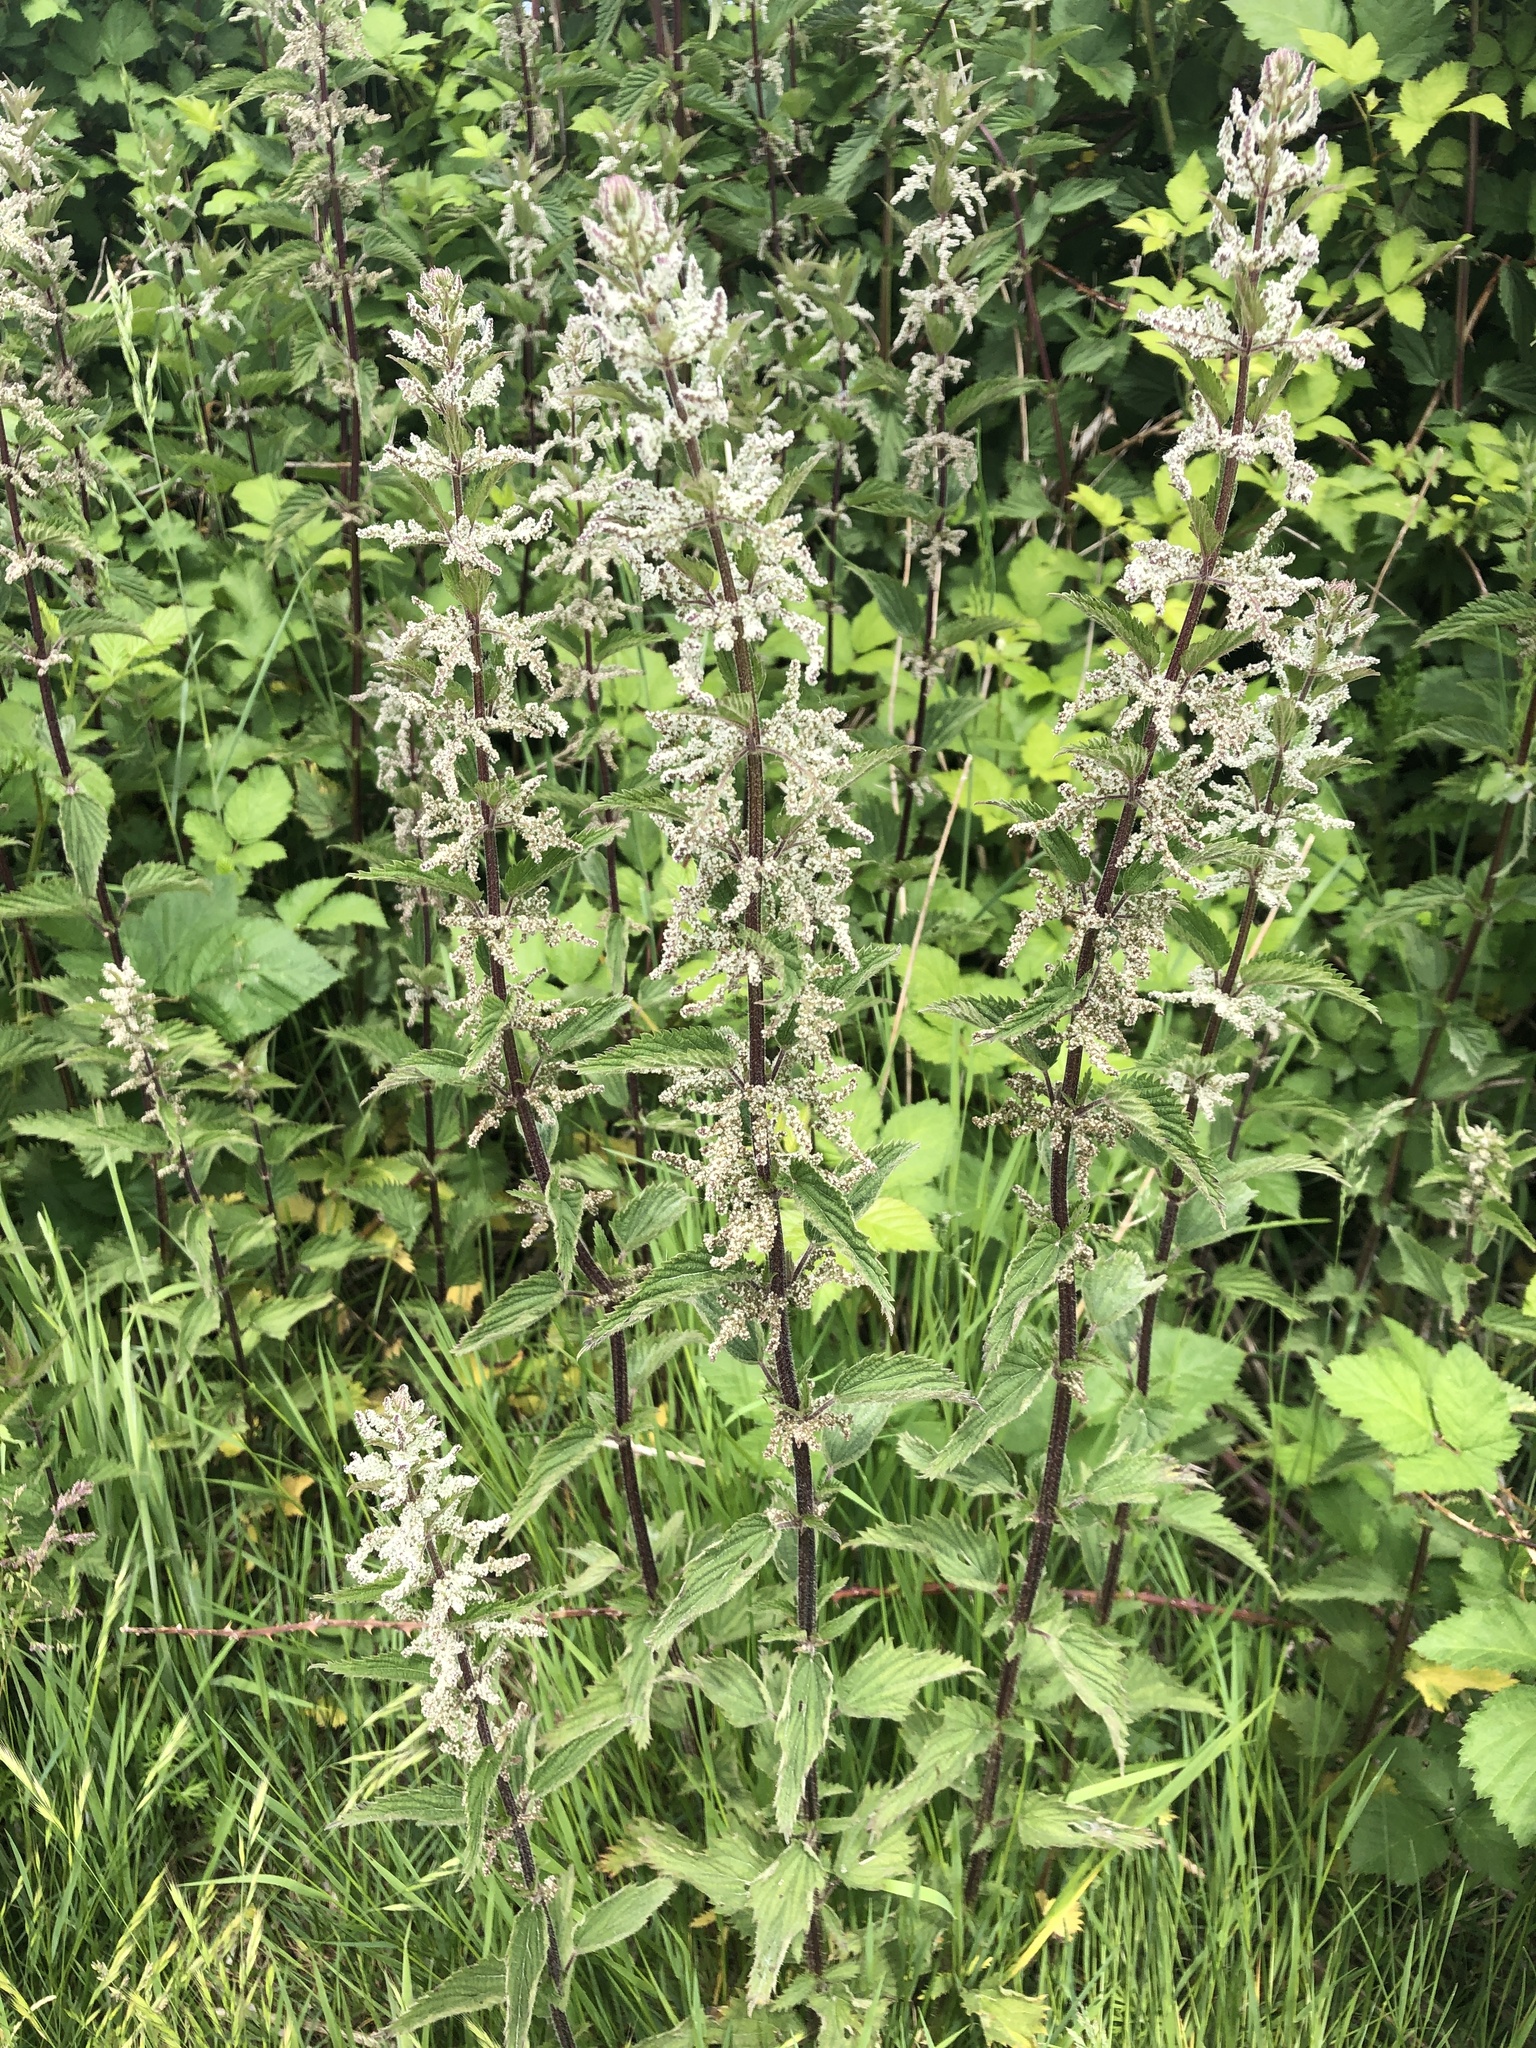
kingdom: Plantae
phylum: Tracheophyta
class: Magnoliopsida
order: Rosales
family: Urticaceae
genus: Urtica
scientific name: Urtica dioica
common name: Common nettle
